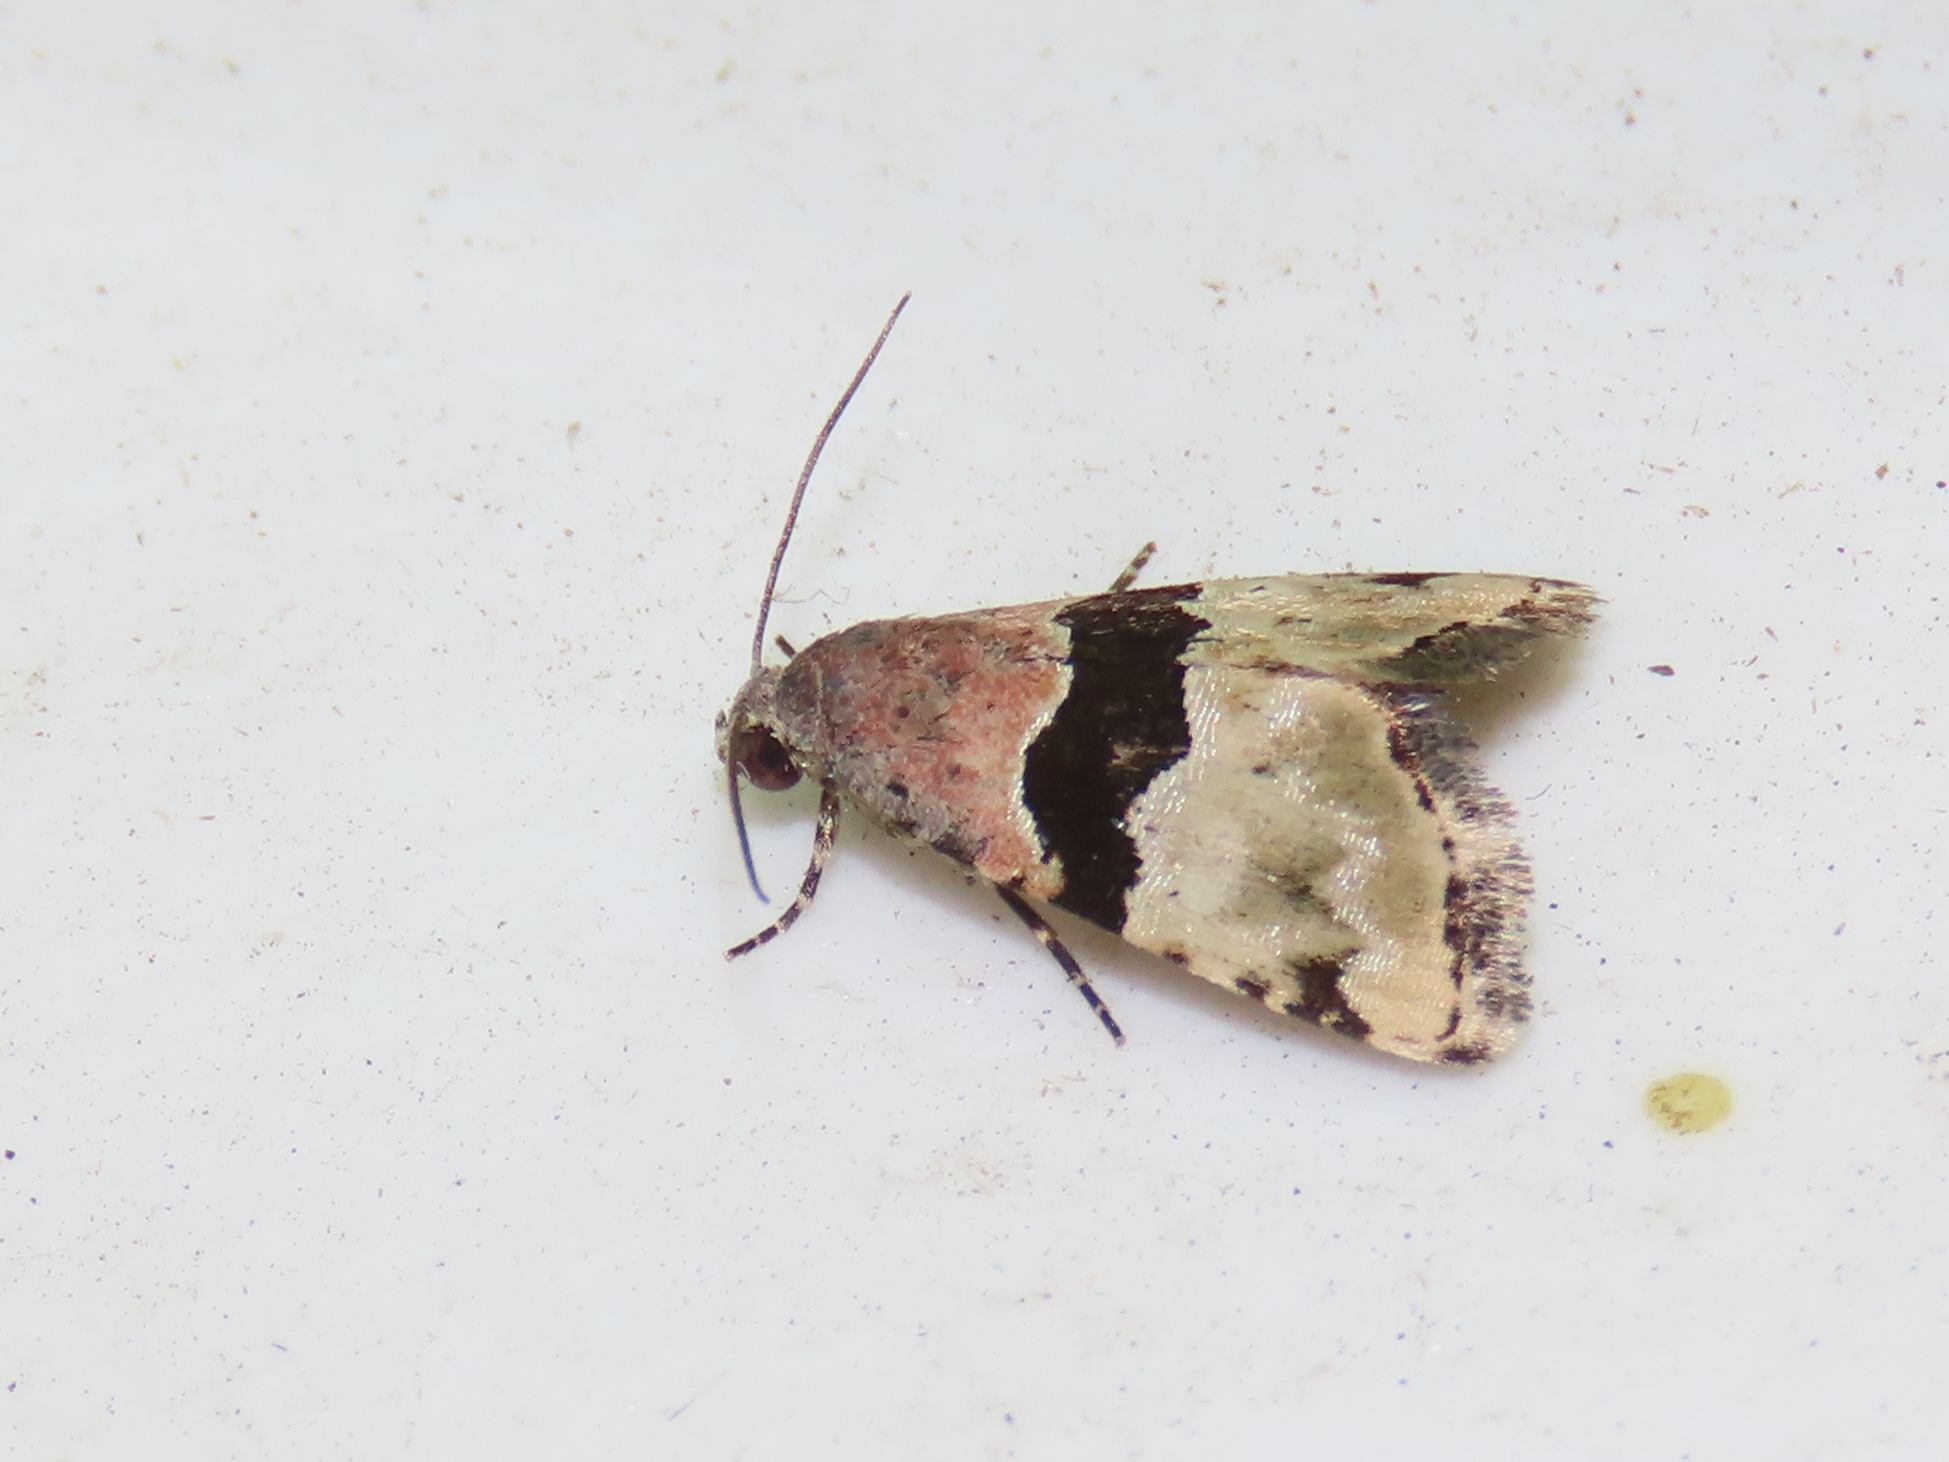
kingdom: Animalia
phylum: Arthropoda
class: Insecta
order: Lepidoptera
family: Noctuidae
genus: Cobubatha
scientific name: Cobubatha lixiva
